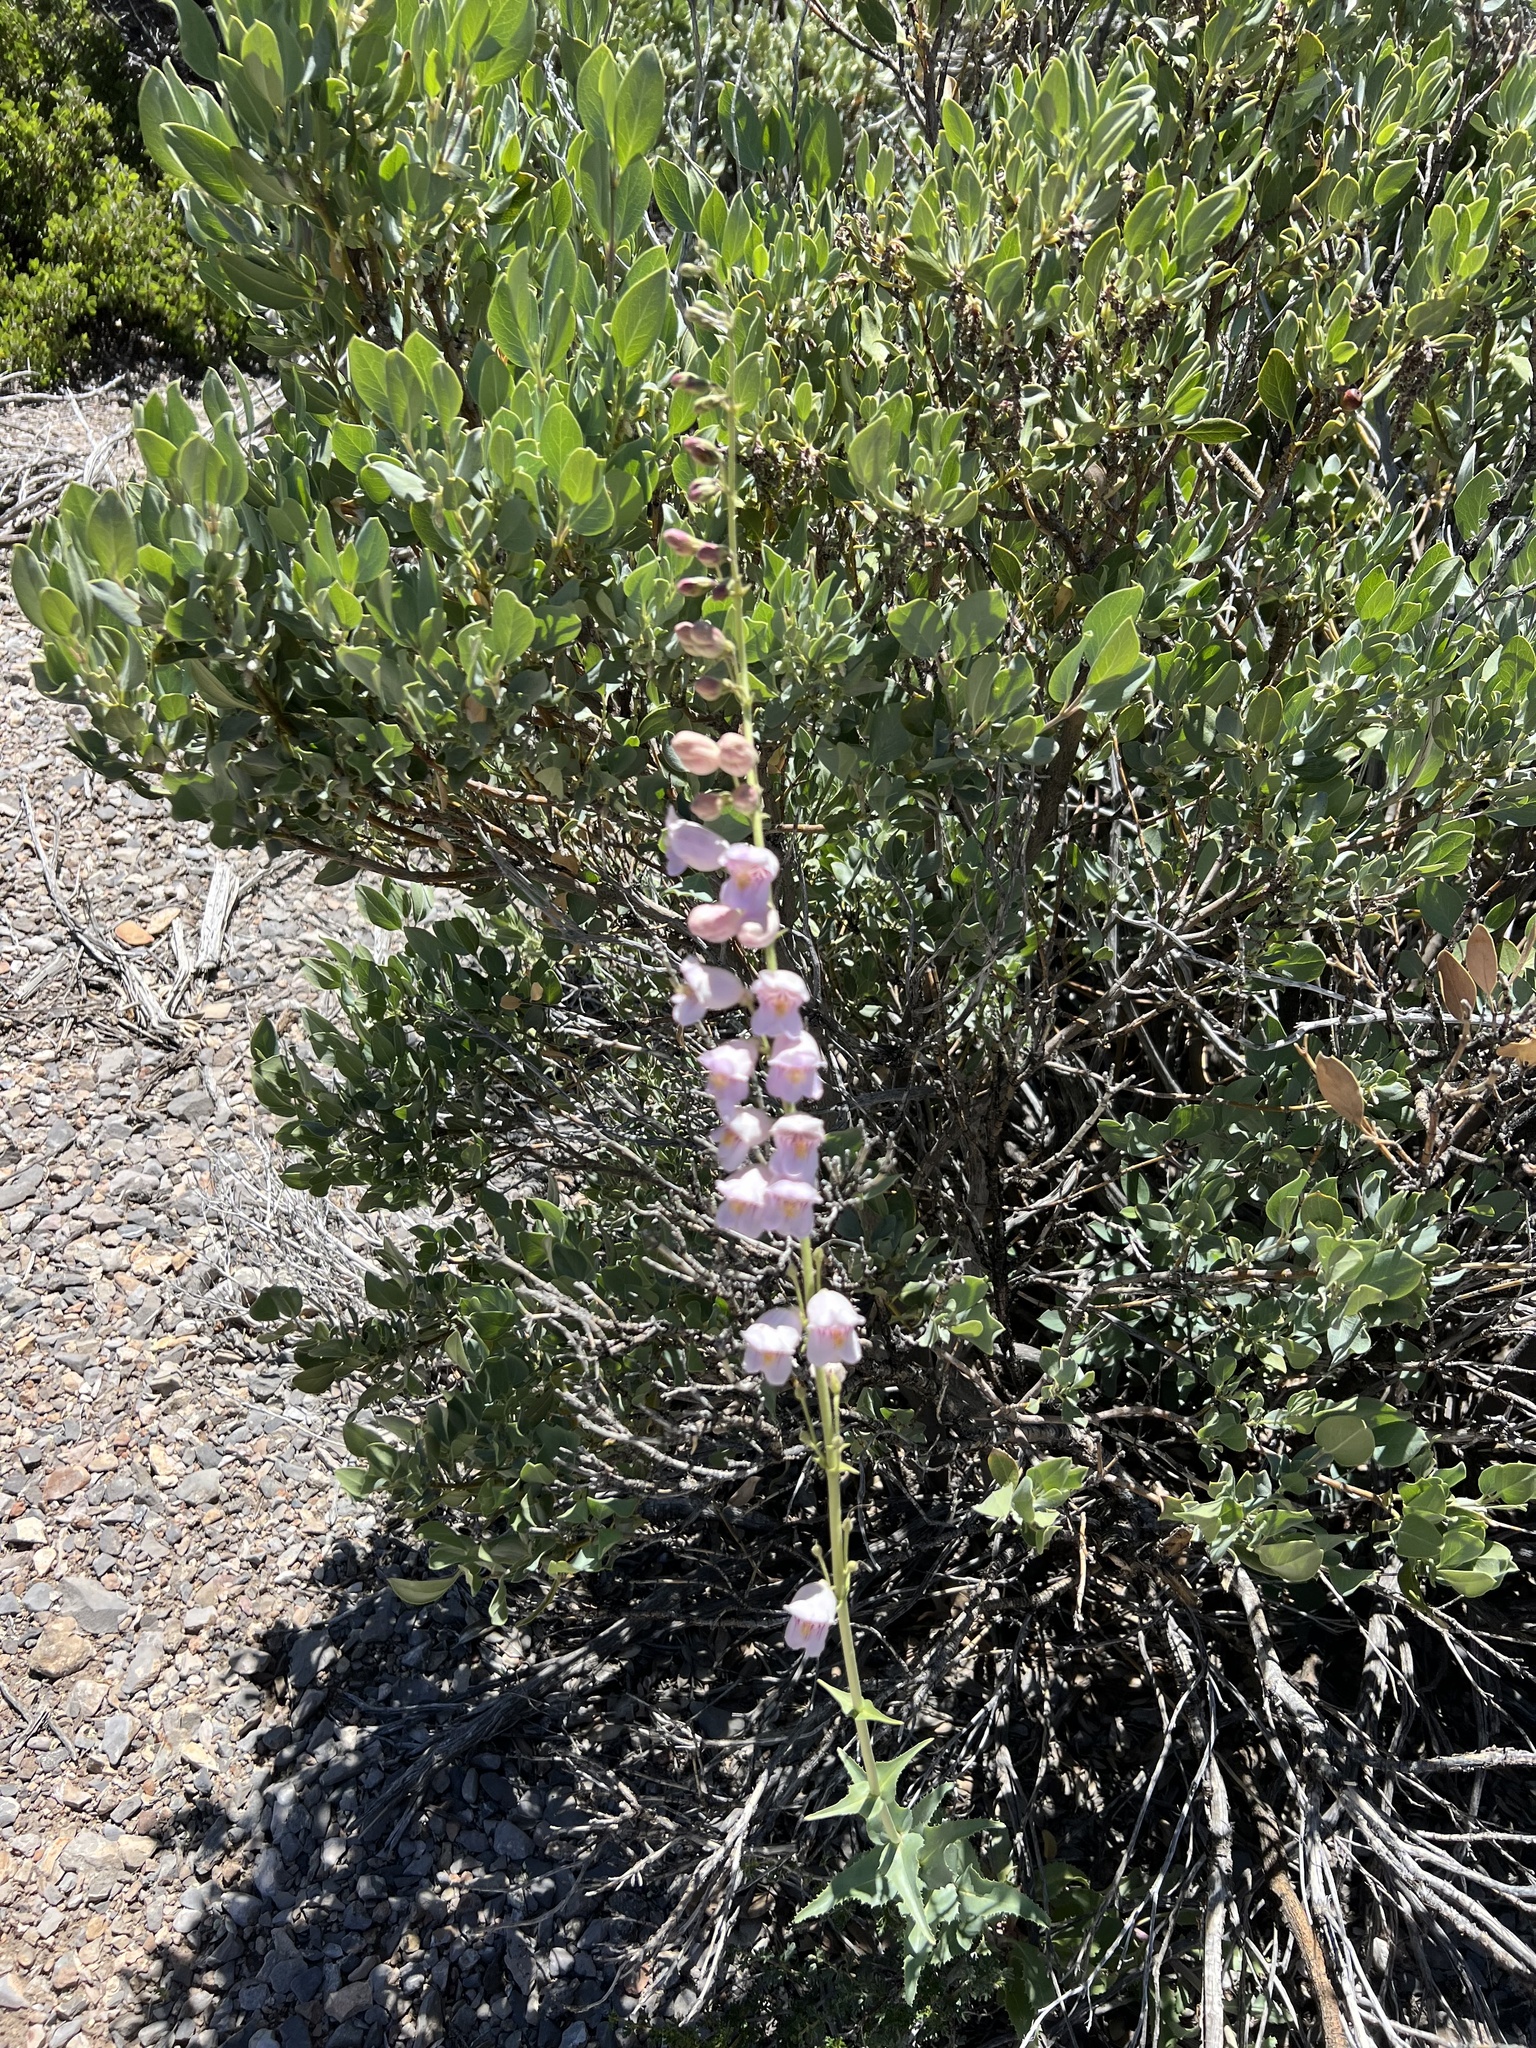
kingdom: Plantae
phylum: Tracheophyta
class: Magnoliopsida
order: Lamiales
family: Plantaginaceae
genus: Penstemon
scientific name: Penstemon palmeri
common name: Palmer penstemon
